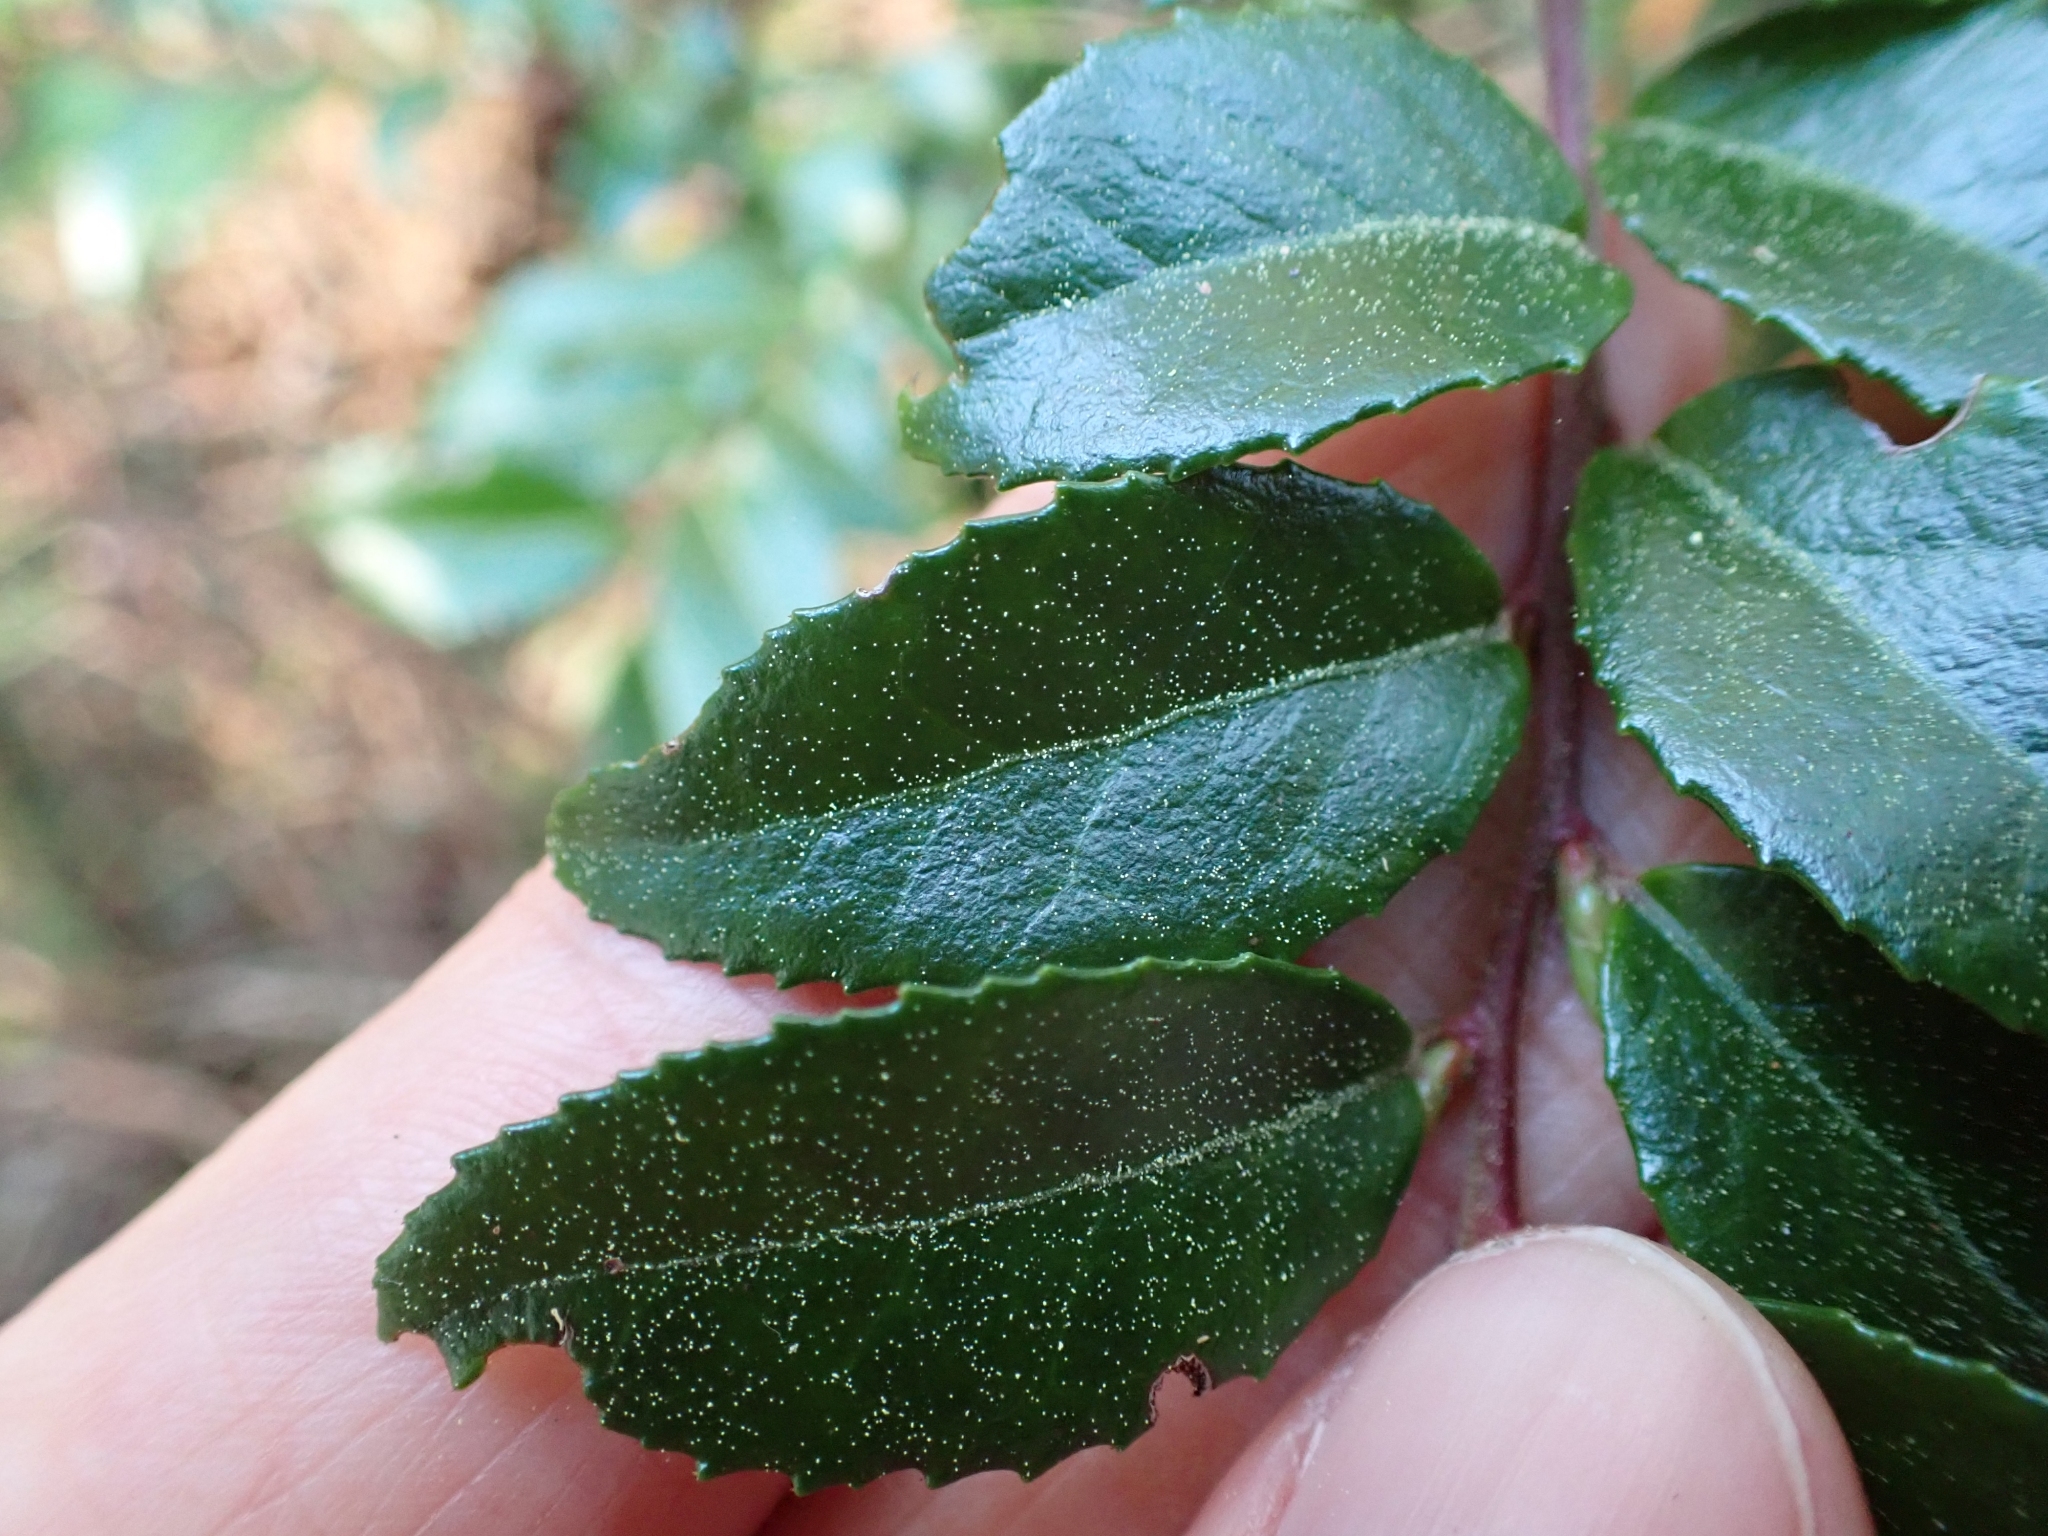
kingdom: Plantae
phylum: Tracheophyta
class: Magnoliopsida
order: Ericales
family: Ericaceae
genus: Vaccinium
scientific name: Vaccinium ovatum
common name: California-huckleberry
